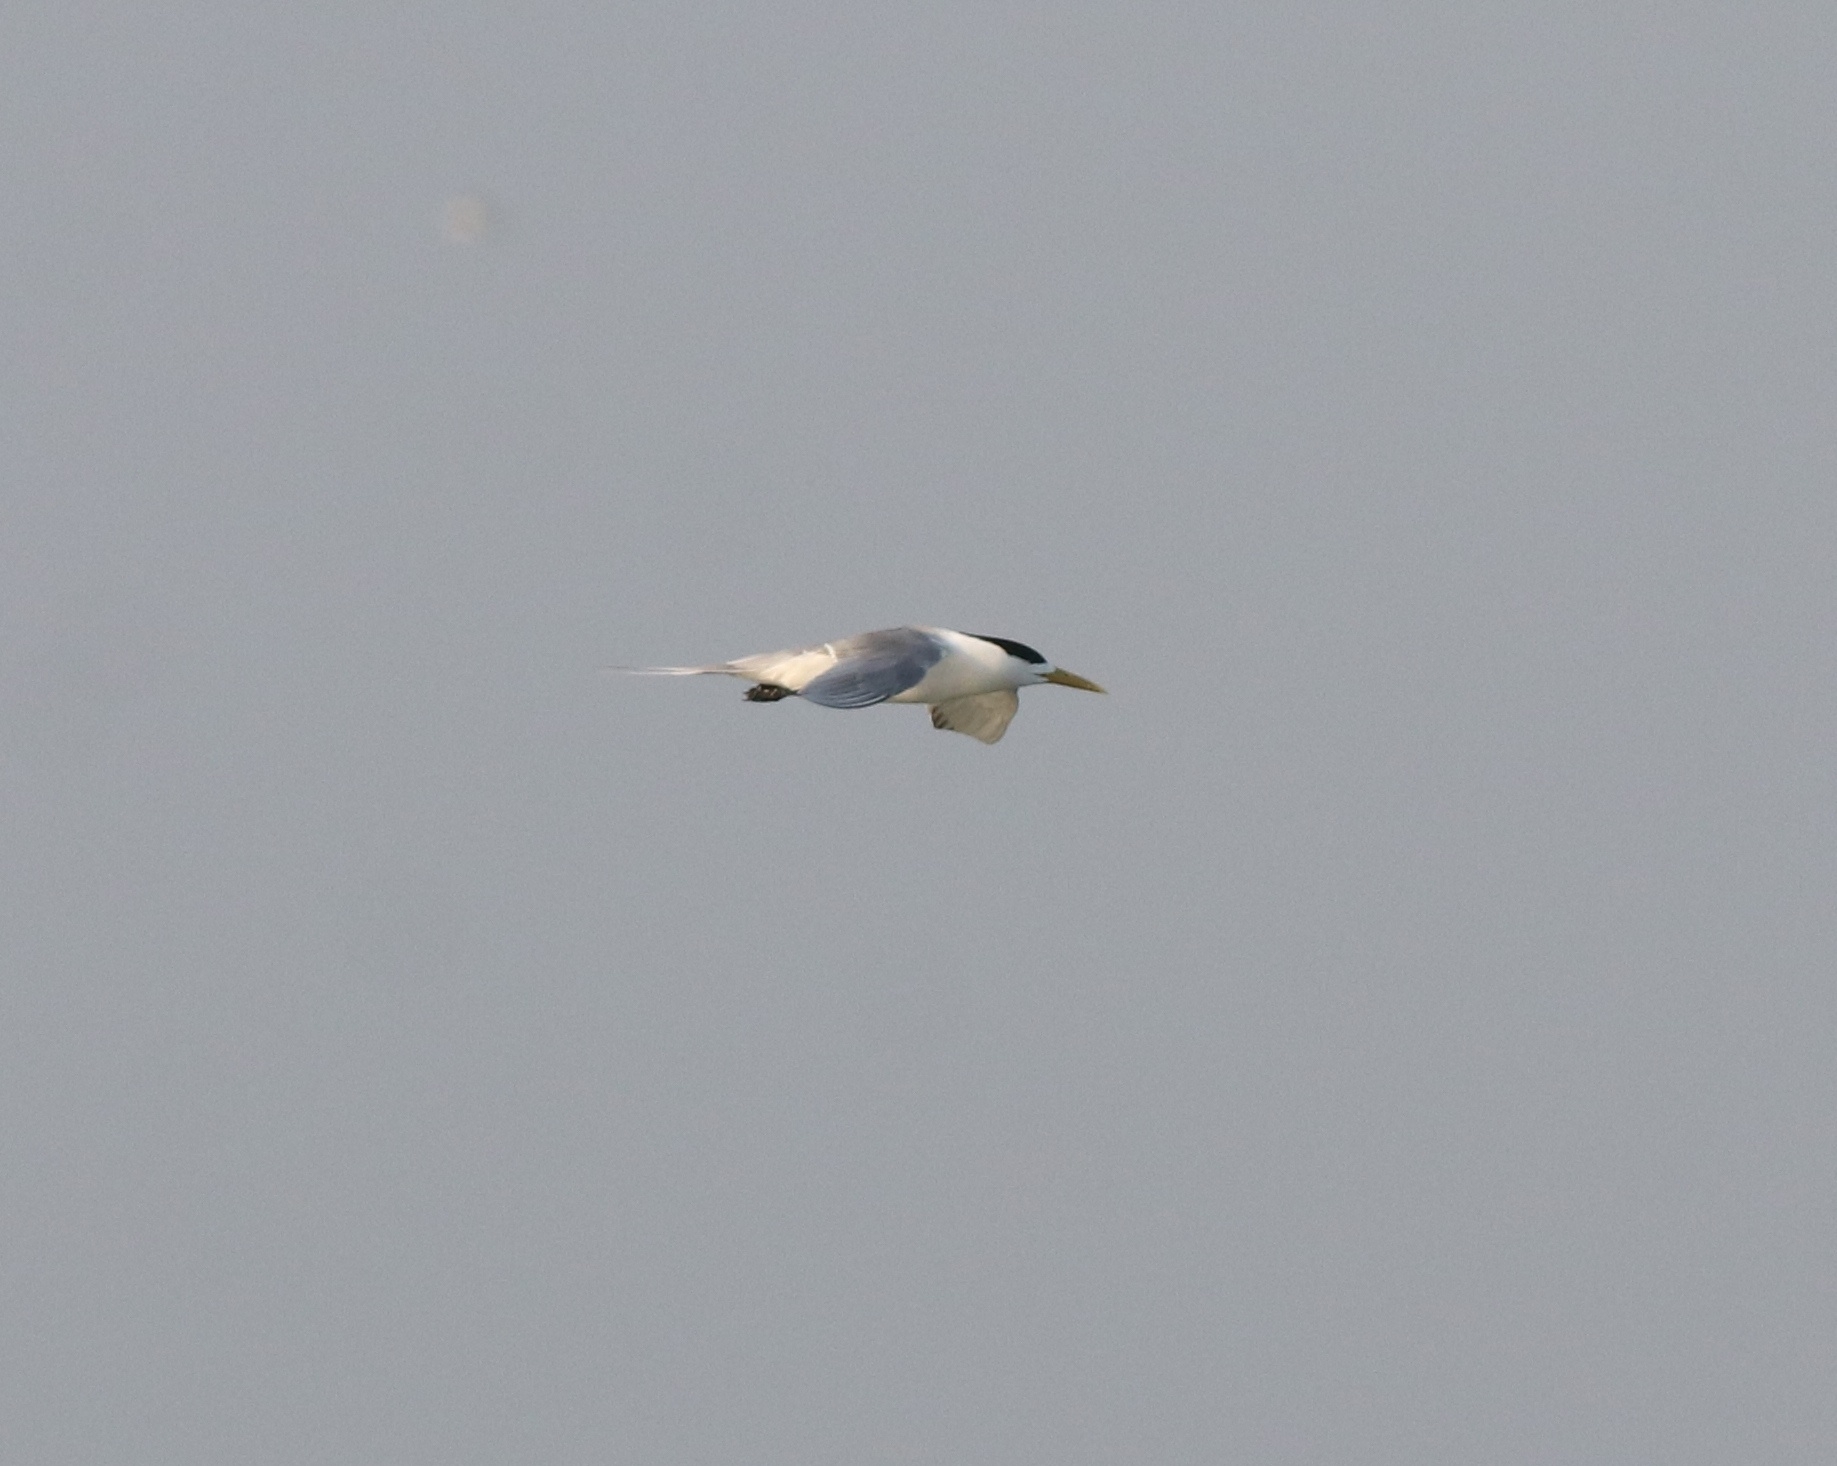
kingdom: Animalia
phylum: Chordata
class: Aves
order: Charadriiformes
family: Laridae
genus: Thalasseus
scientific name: Thalasseus bergii
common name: Greater crested tern
